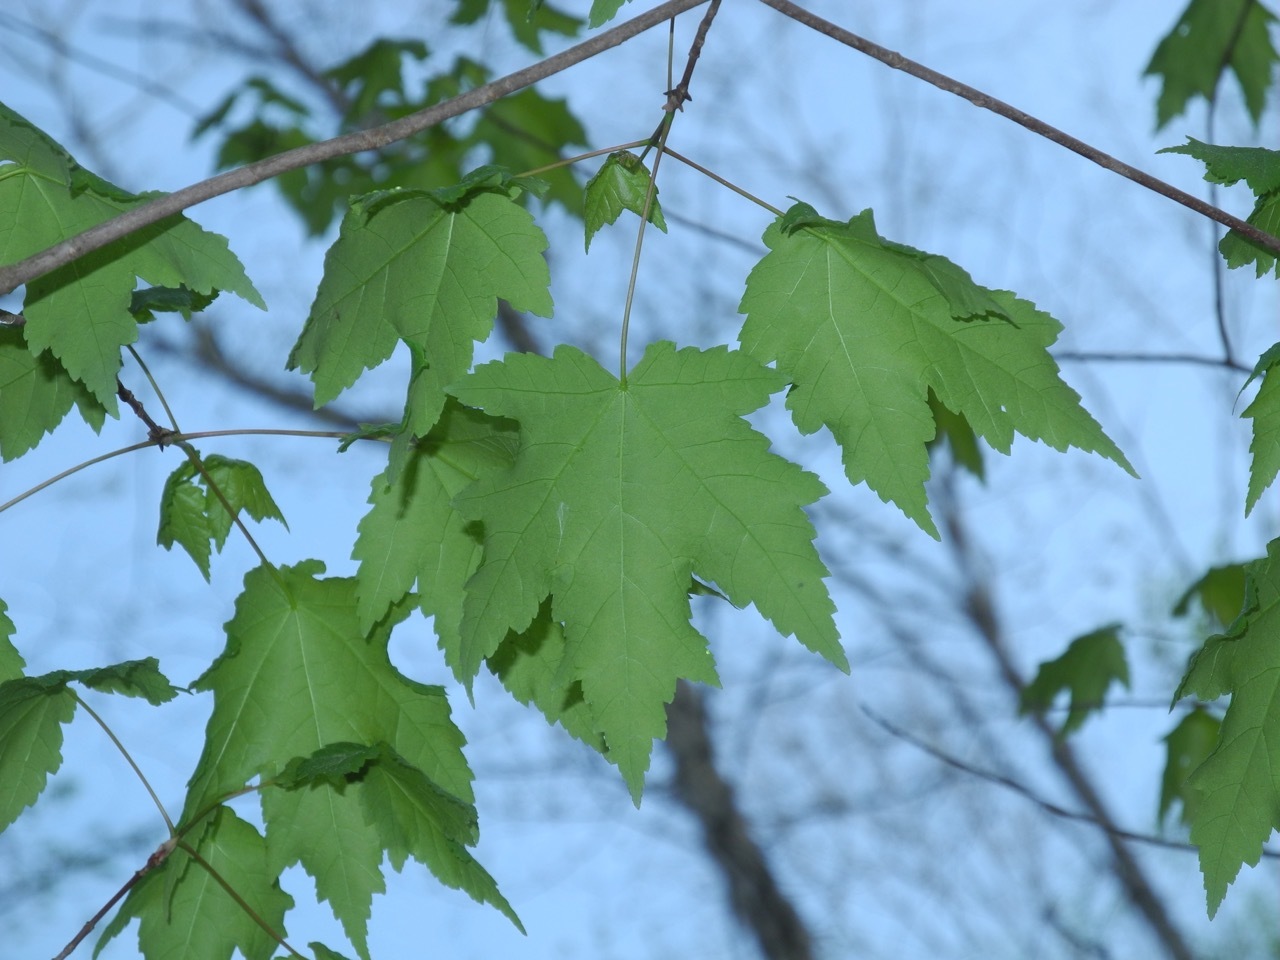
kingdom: Plantae
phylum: Tracheophyta
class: Magnoliopsida
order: Sapindales
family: Sapindaceae
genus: Acer
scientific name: Acer freemanii
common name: Freeman maple
